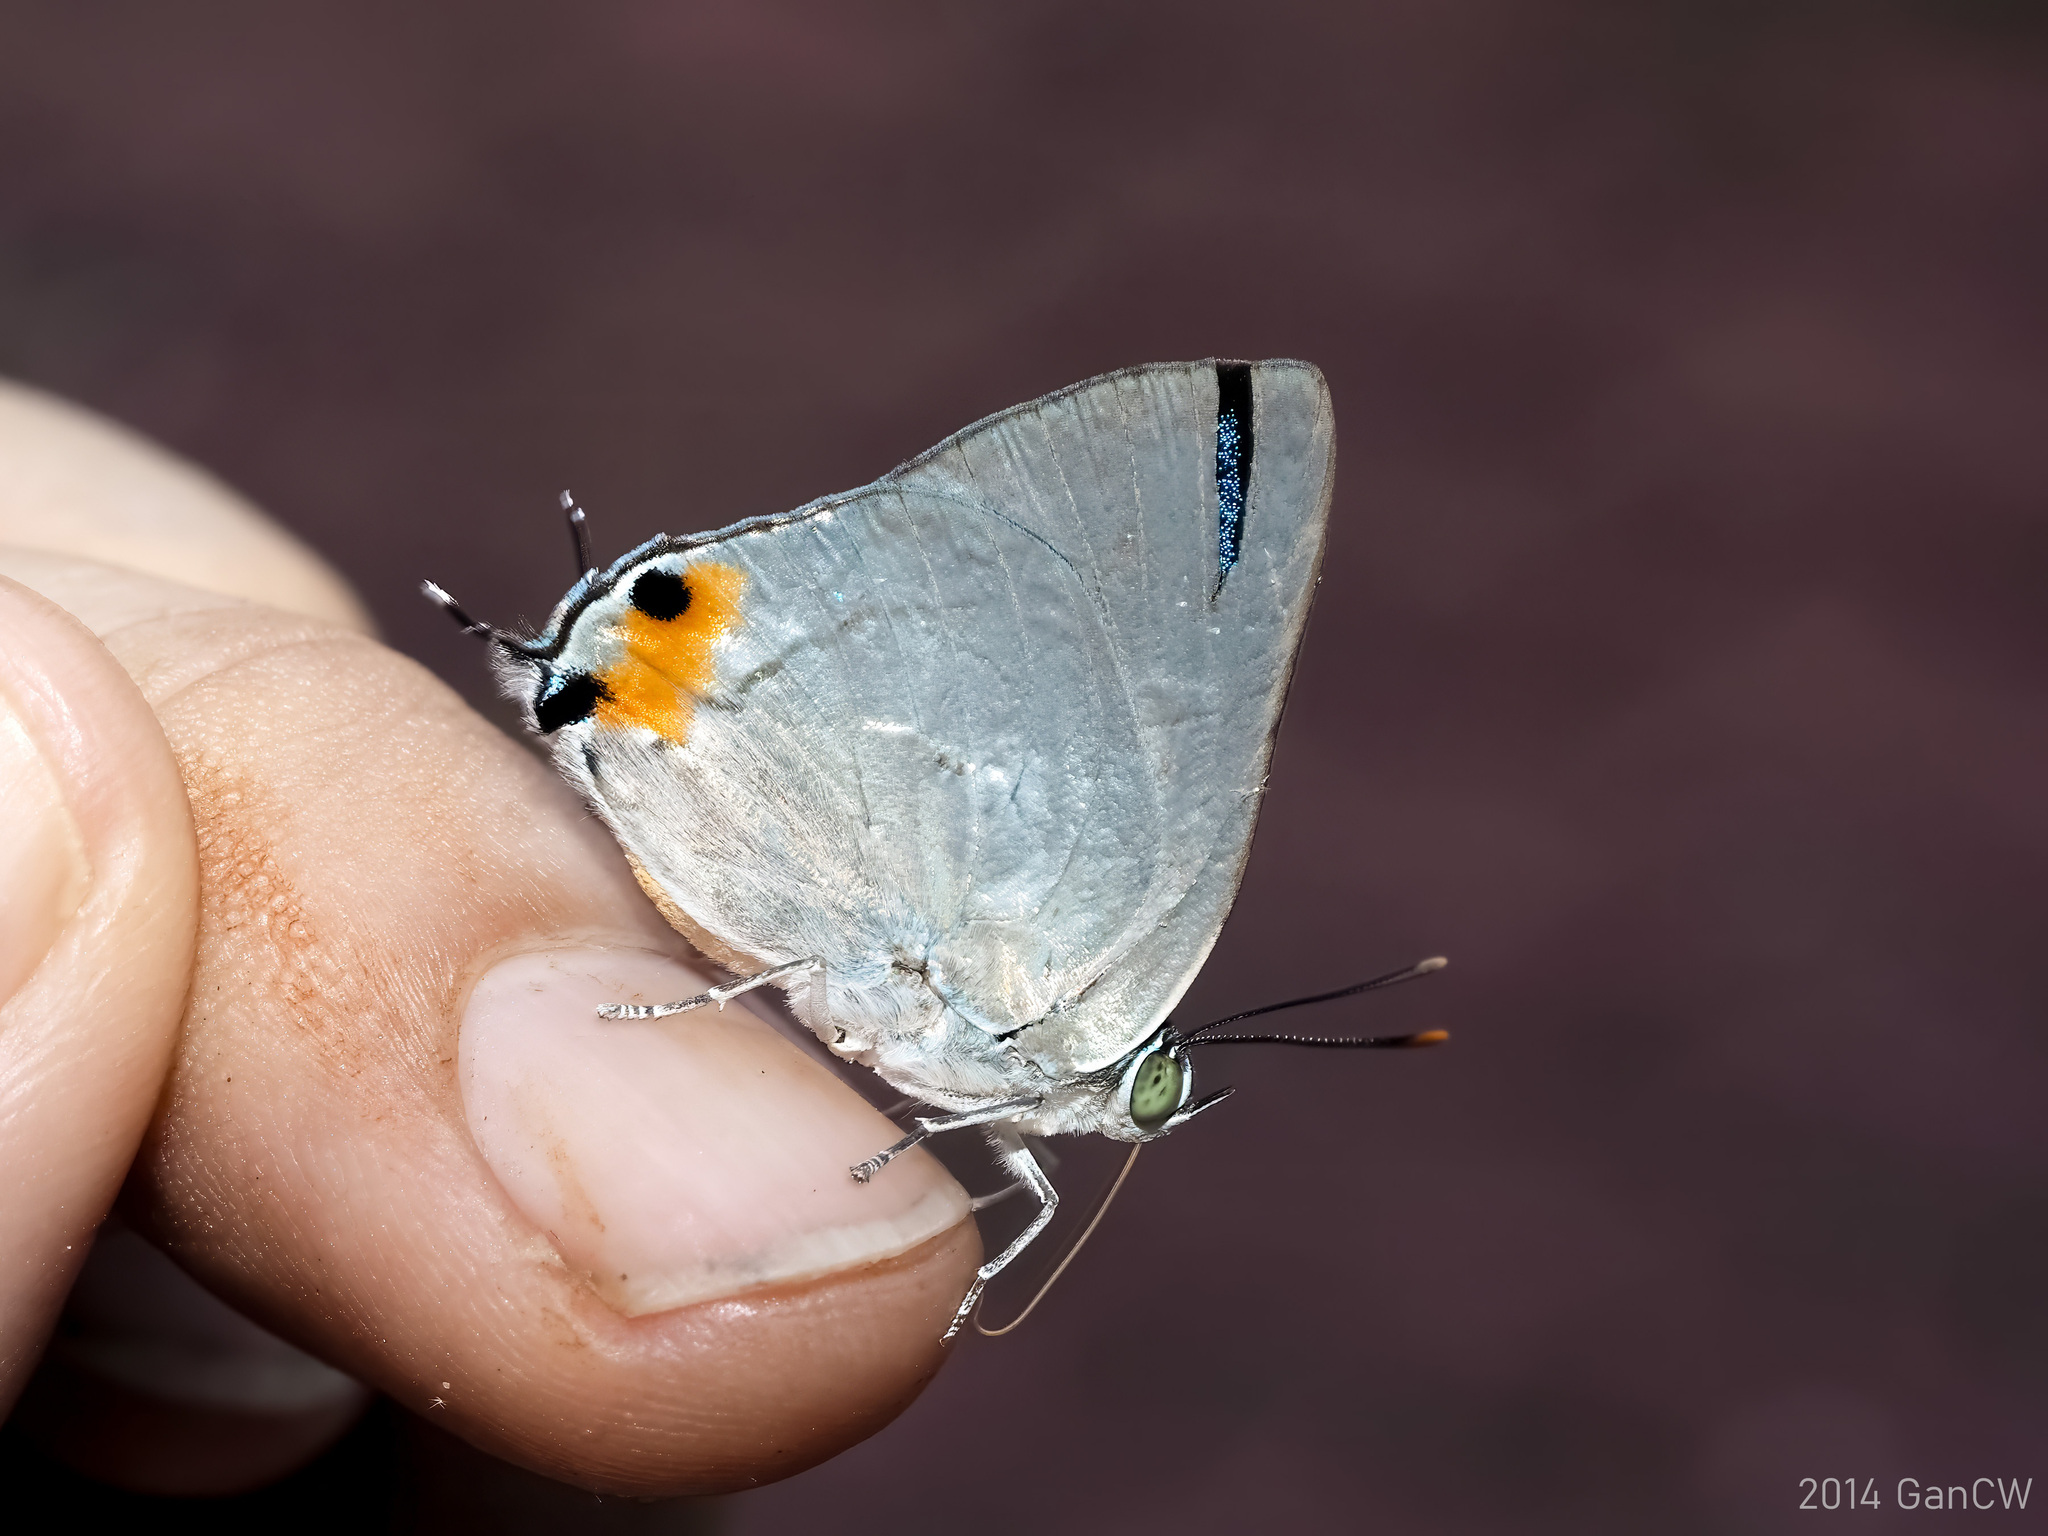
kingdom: Animalia
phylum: Arthropoda
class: Insecta
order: Lepidoptera
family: Lycaenidae
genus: Ancema
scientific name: Ancema blanka
